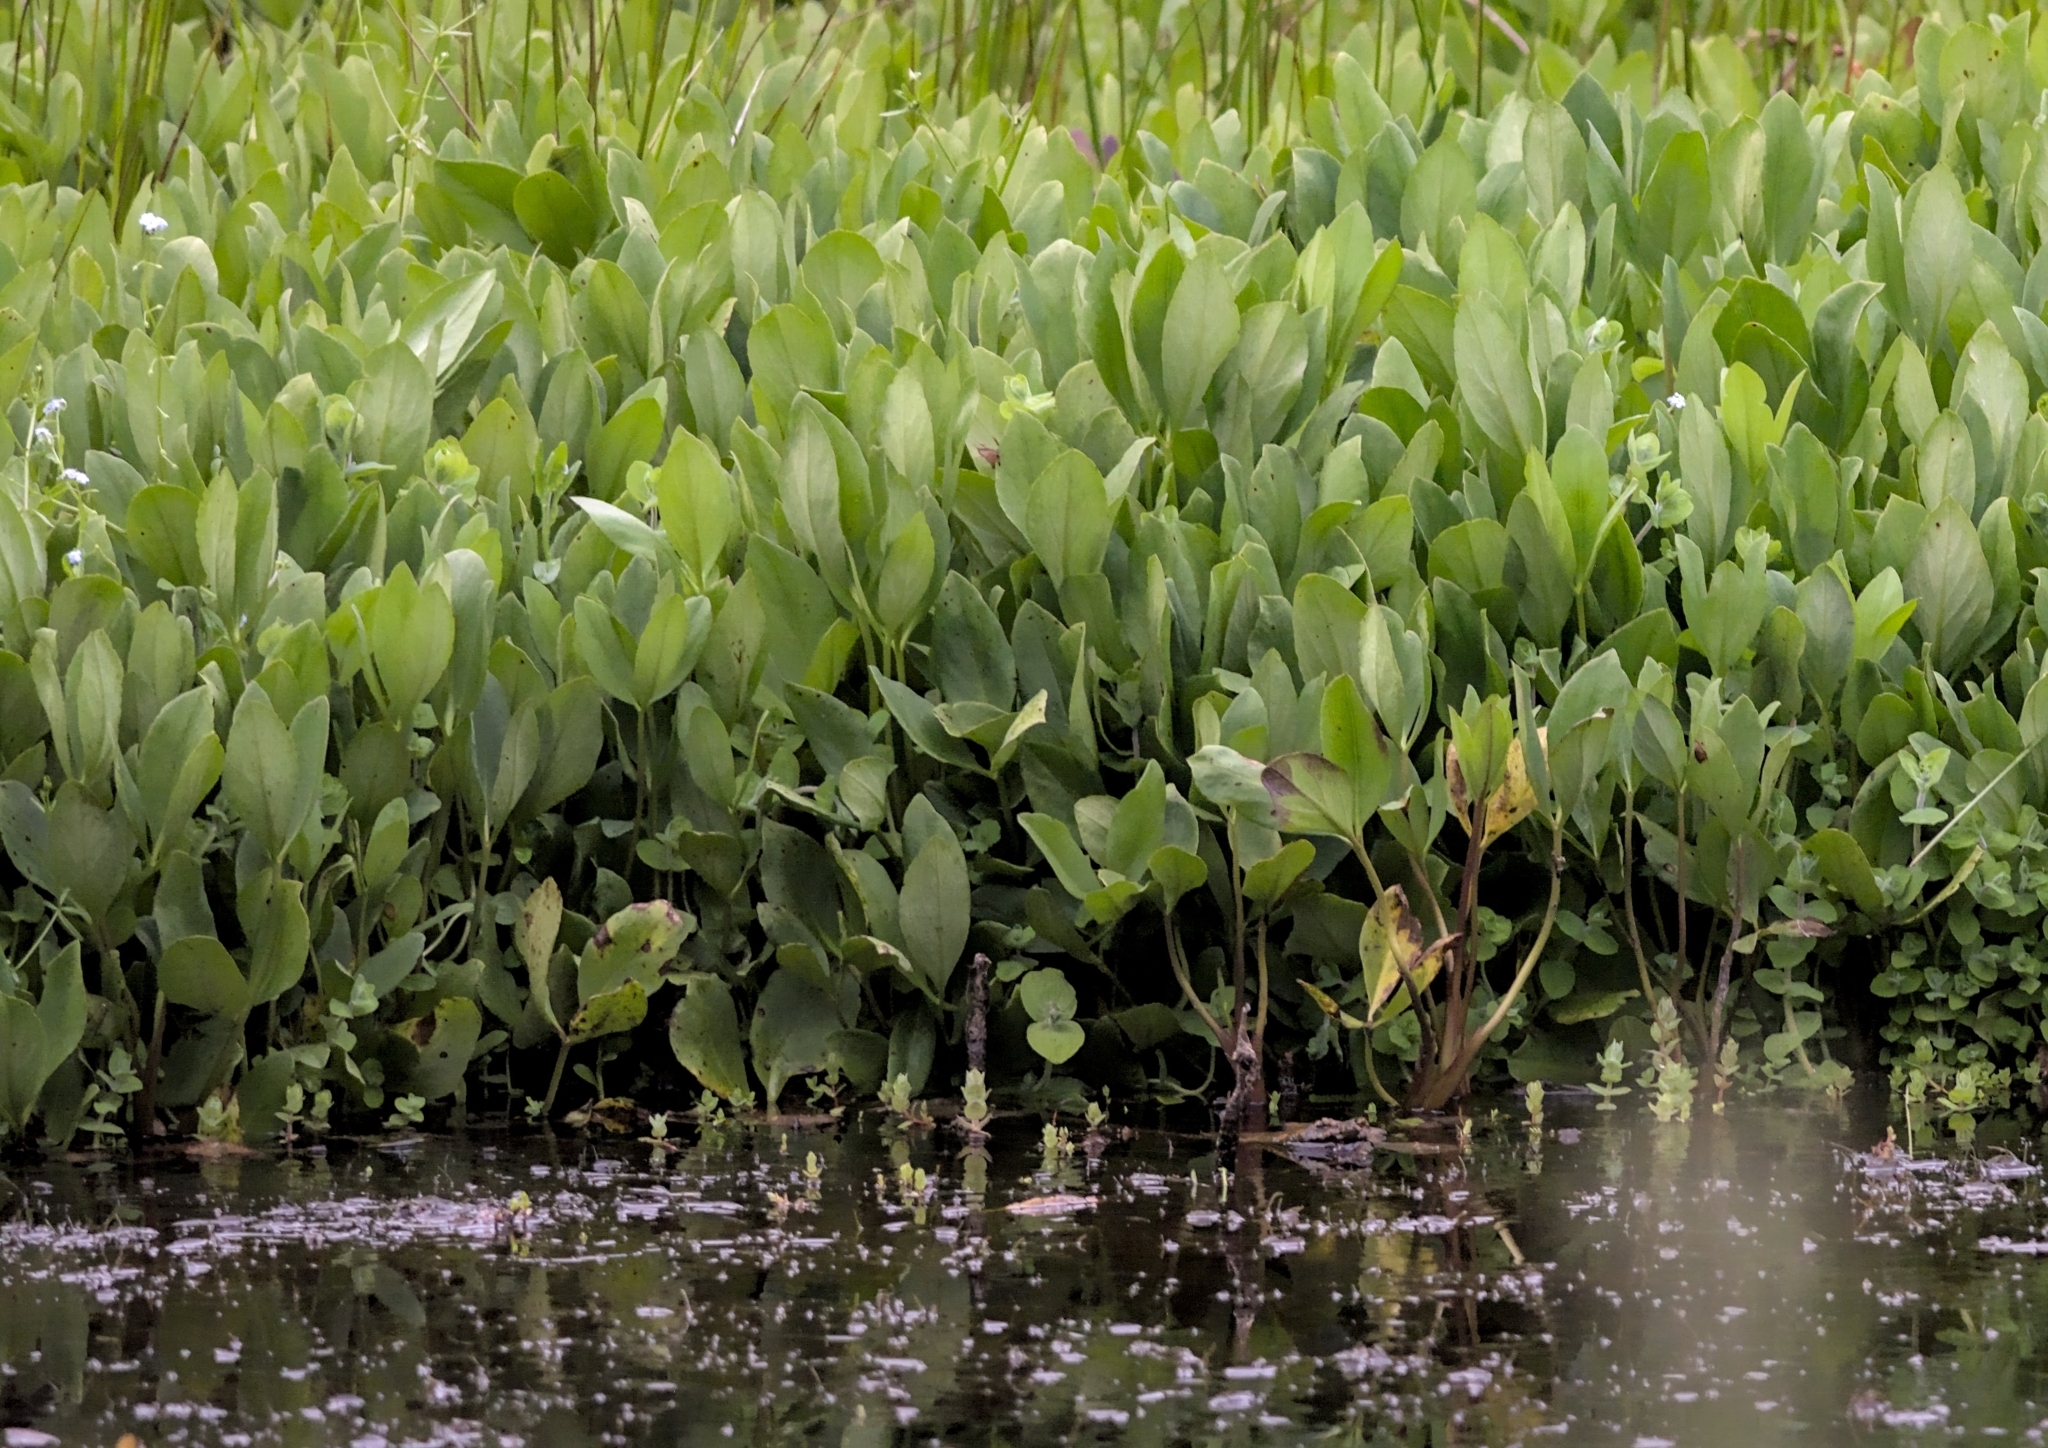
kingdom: Plantae
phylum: Tracheophyta
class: Magnoliopsida
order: Asterales
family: Menyanthaceae
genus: Menyanthes
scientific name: Menyanthes trifoliata
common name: Bogbean
